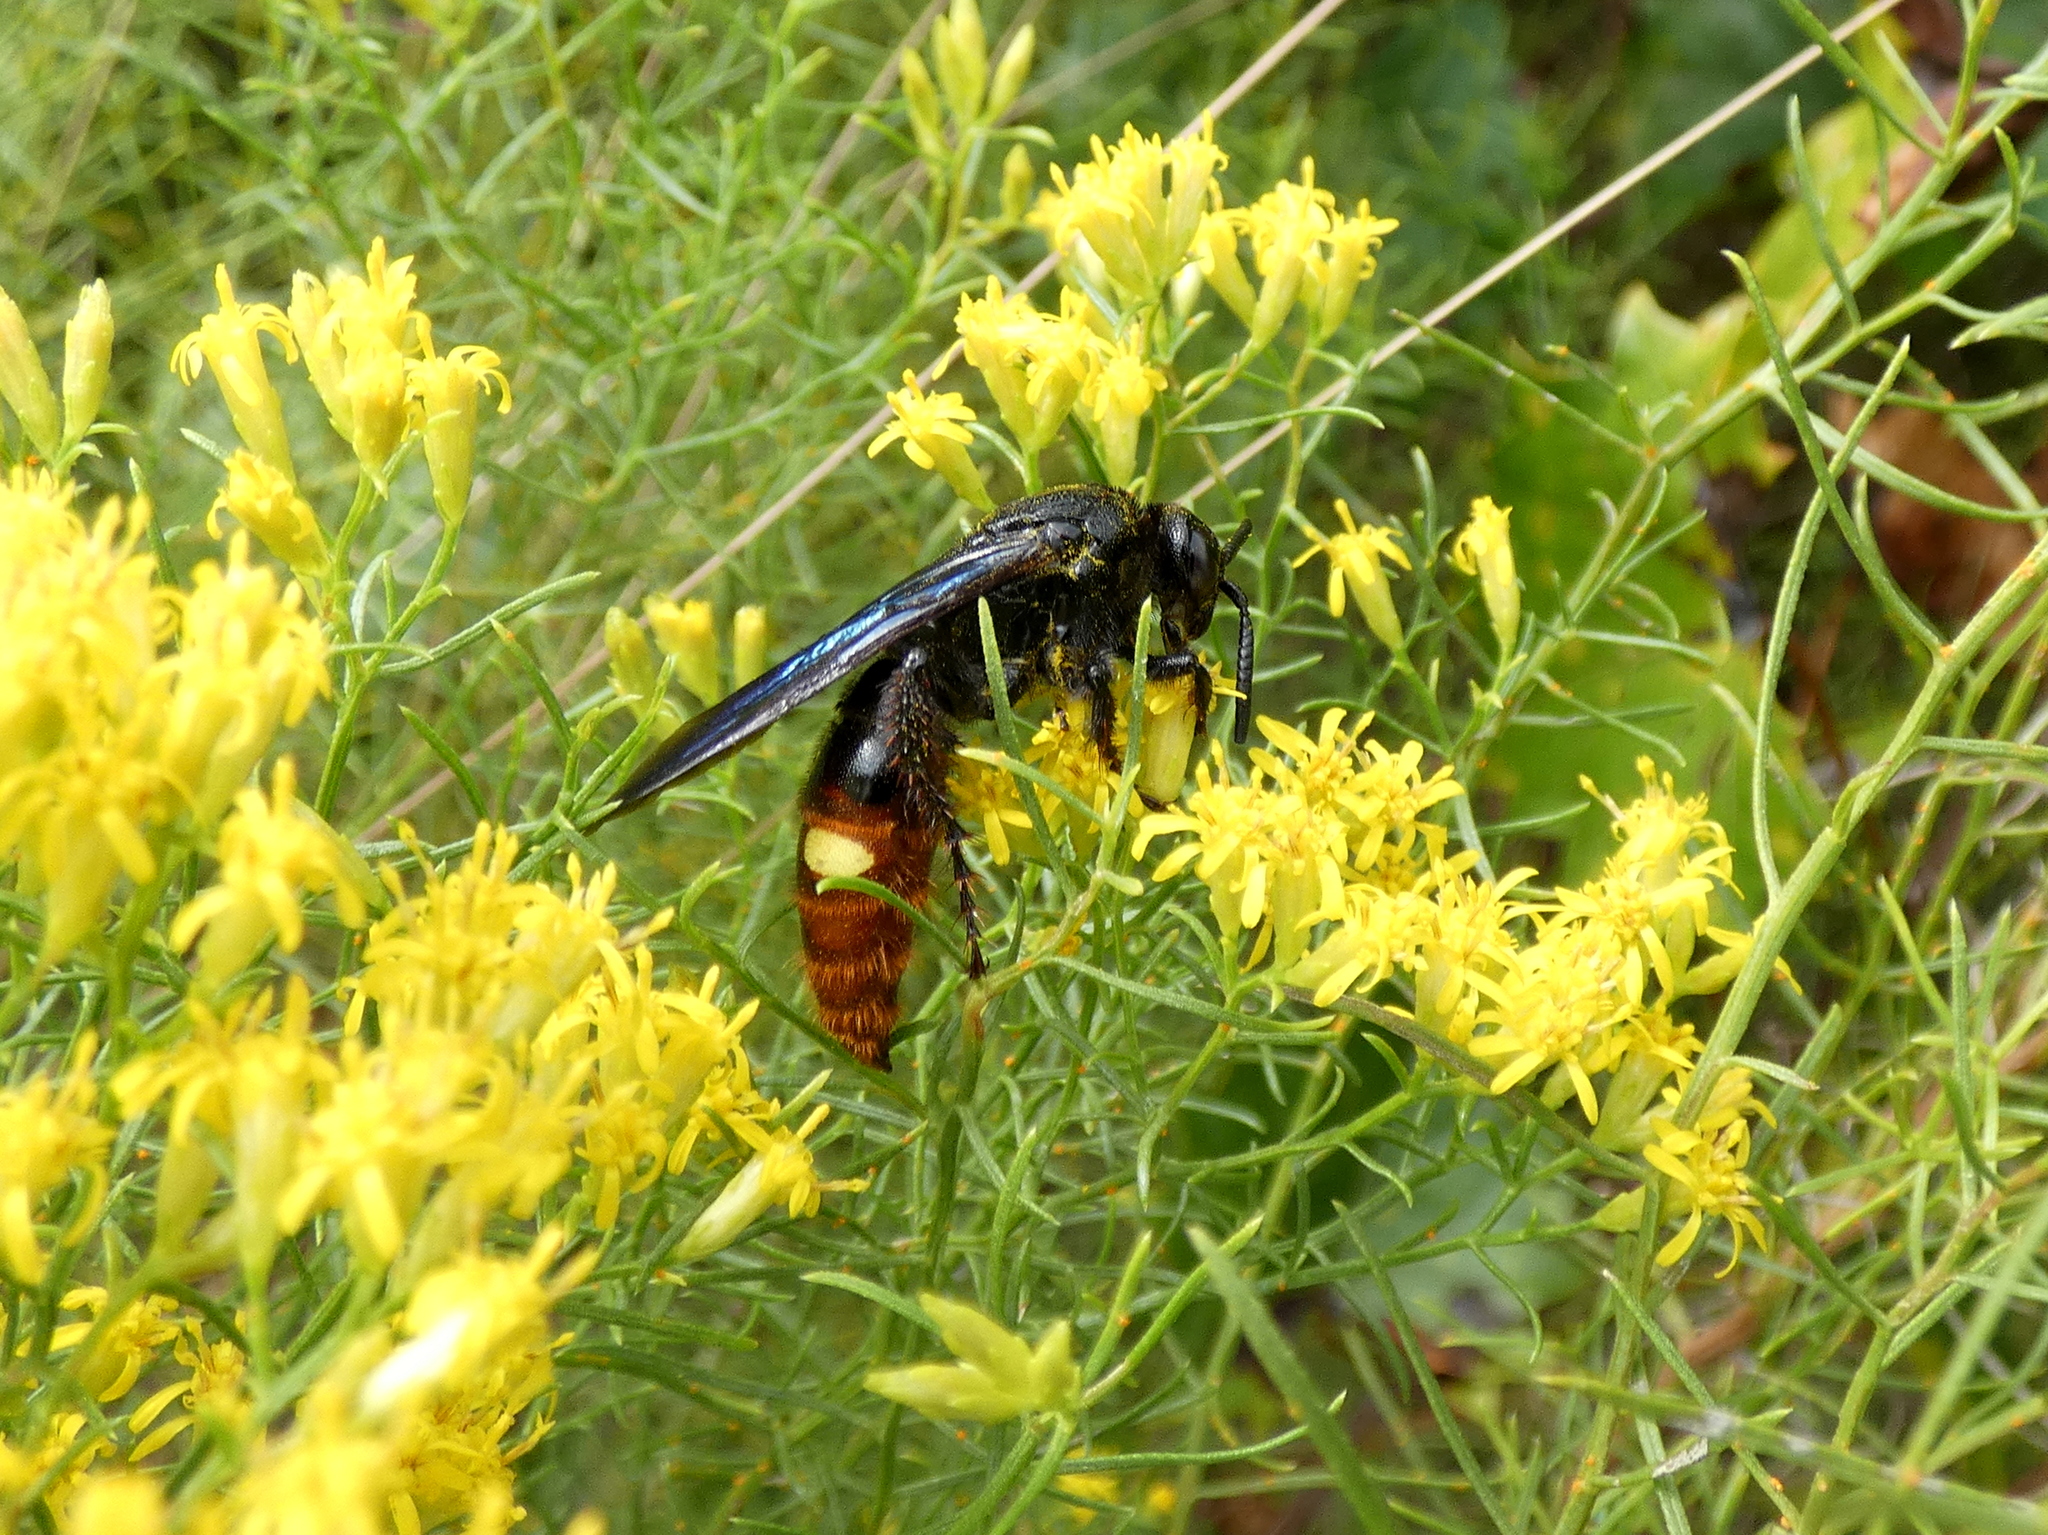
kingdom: Animalia
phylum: Arthropoda
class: Insecta
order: Hymenoptera
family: Scoliidae
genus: Scolia
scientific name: Scolia dubia
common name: Blue-winged scoliid wasp
